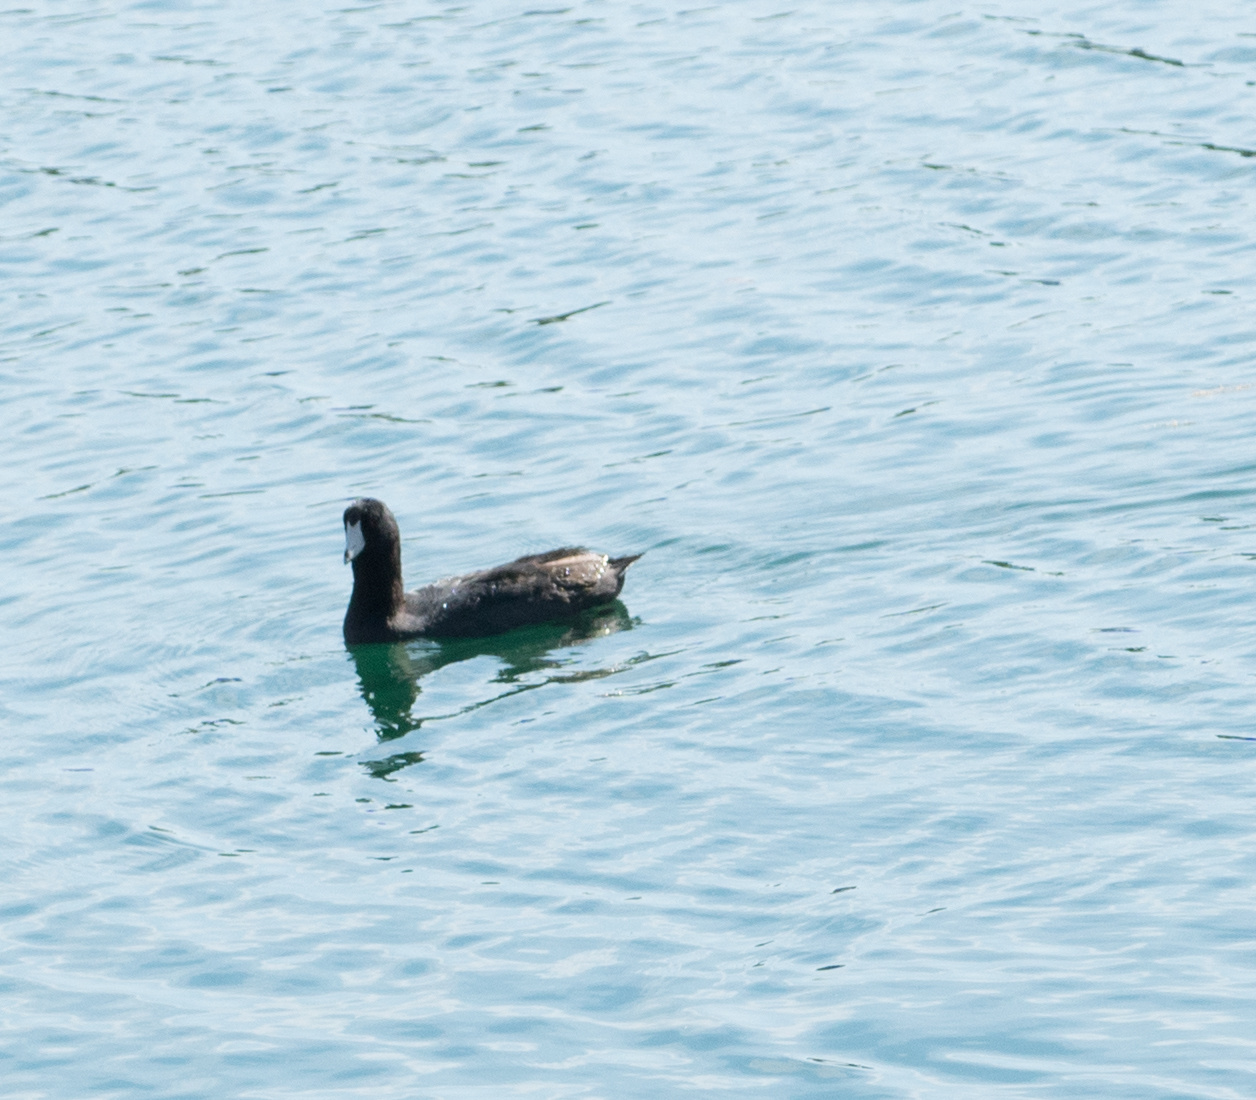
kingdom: Animalia
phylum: Chordata
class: Aves
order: Gruiformes
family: Rallidae
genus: Fulica
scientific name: Fulica americana
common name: American coot
